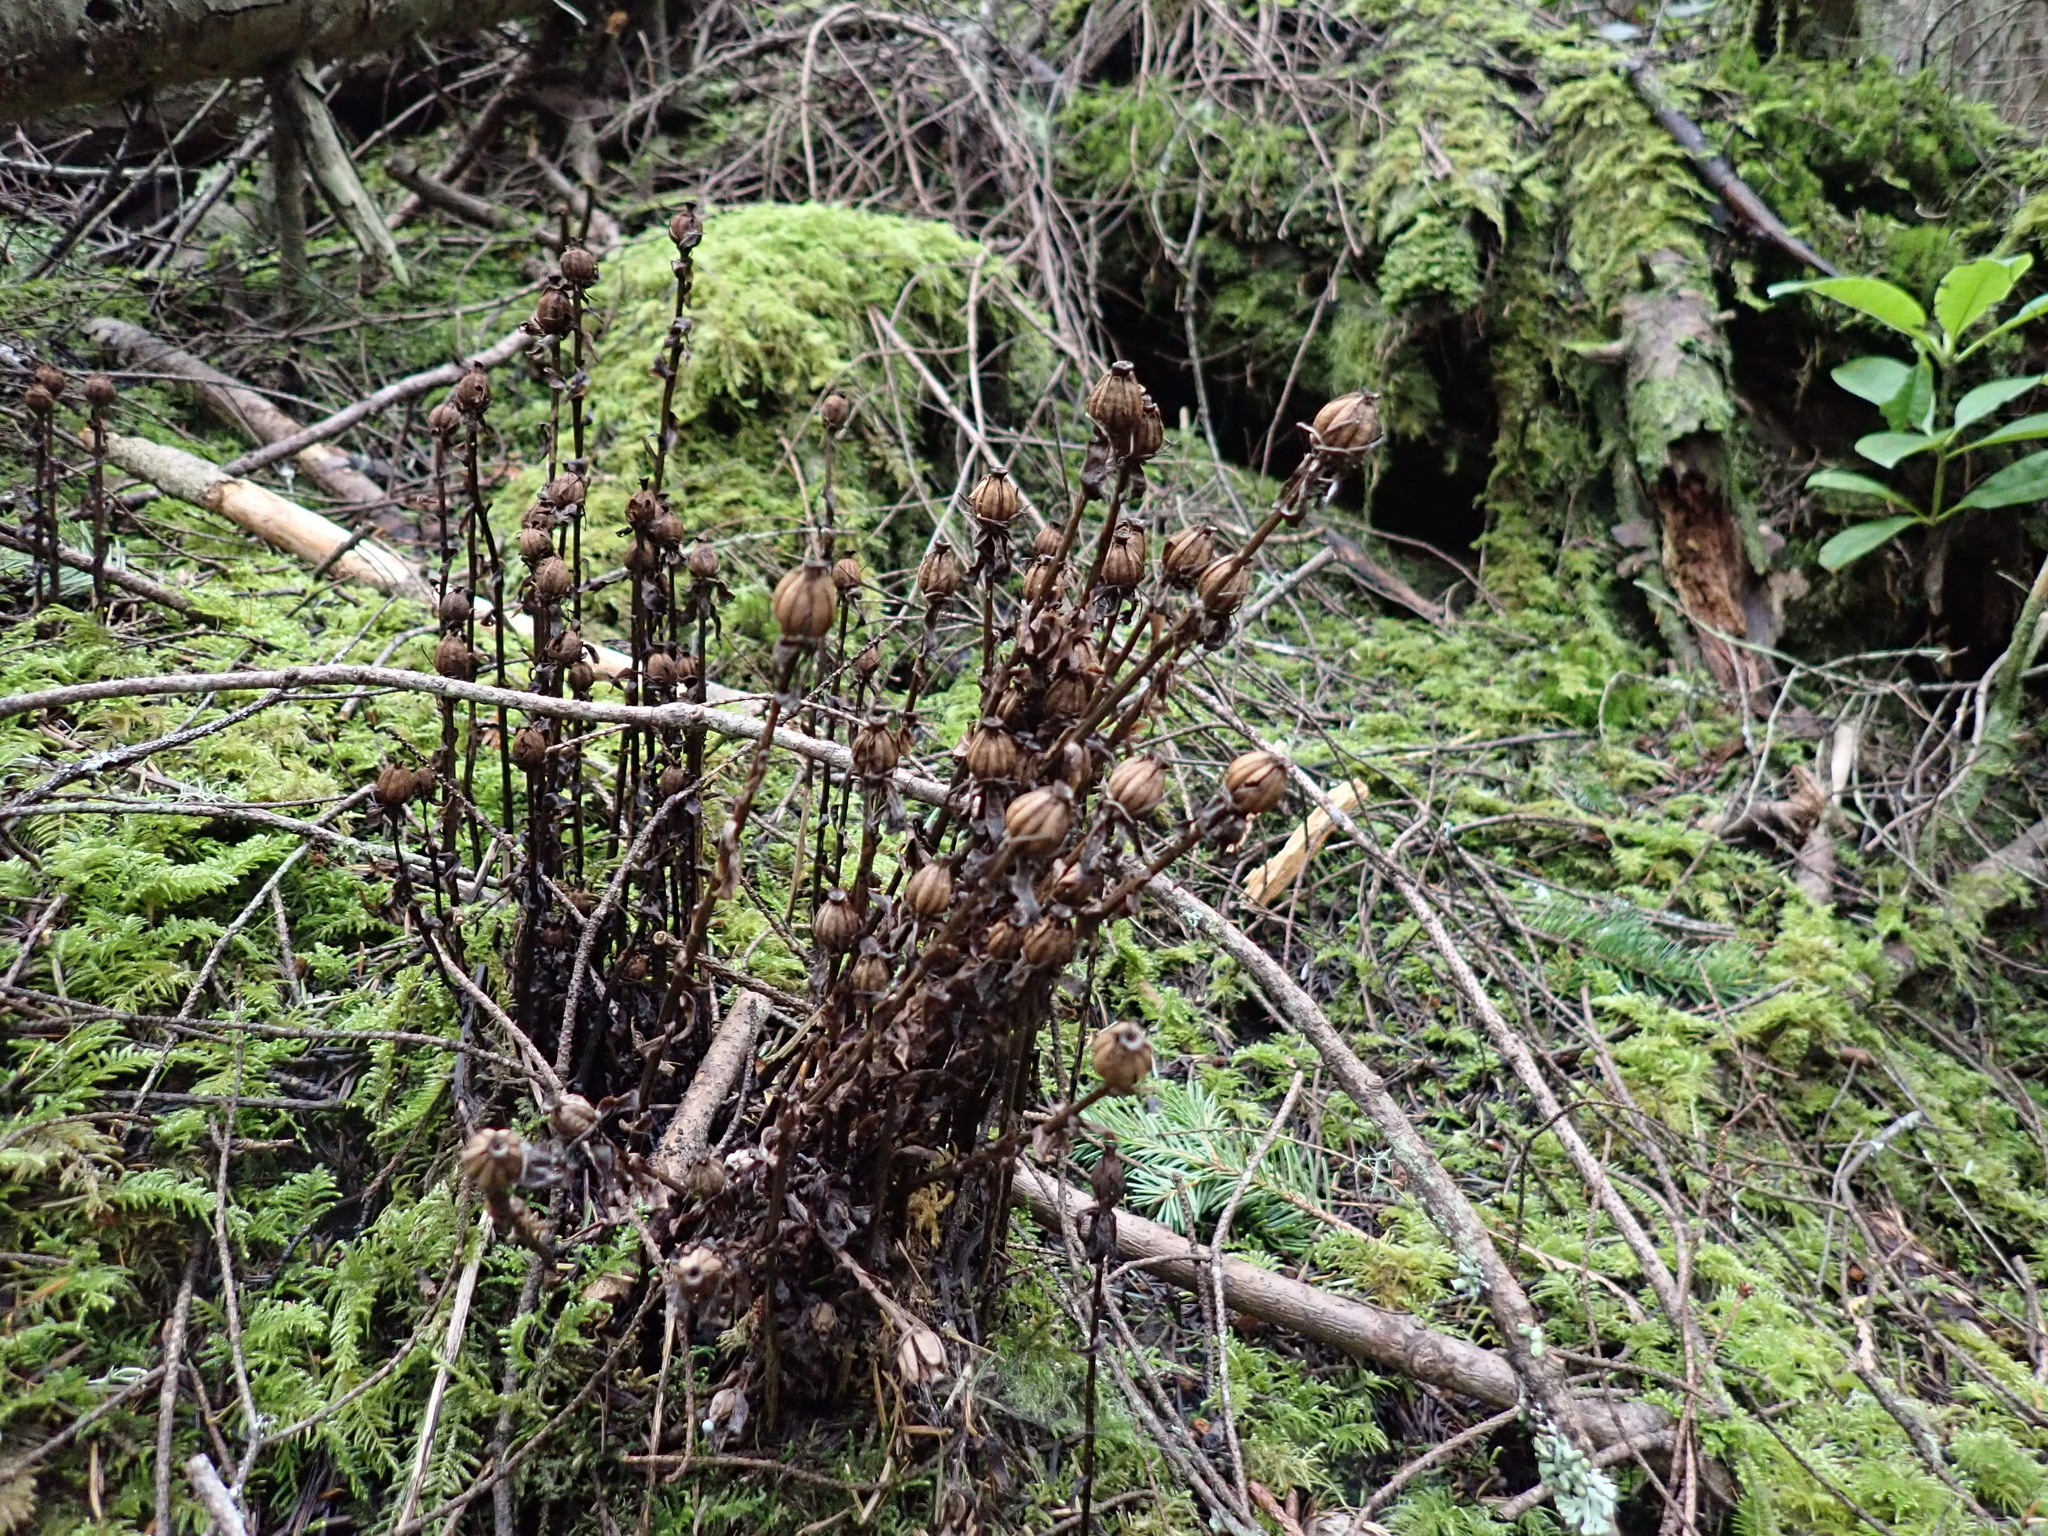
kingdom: Plantae
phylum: Tracheophyta
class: Magnoliopsida
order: Ericales
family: Ericaceae
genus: Monotropa
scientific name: Monotropa uniflora
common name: Convulsion root
